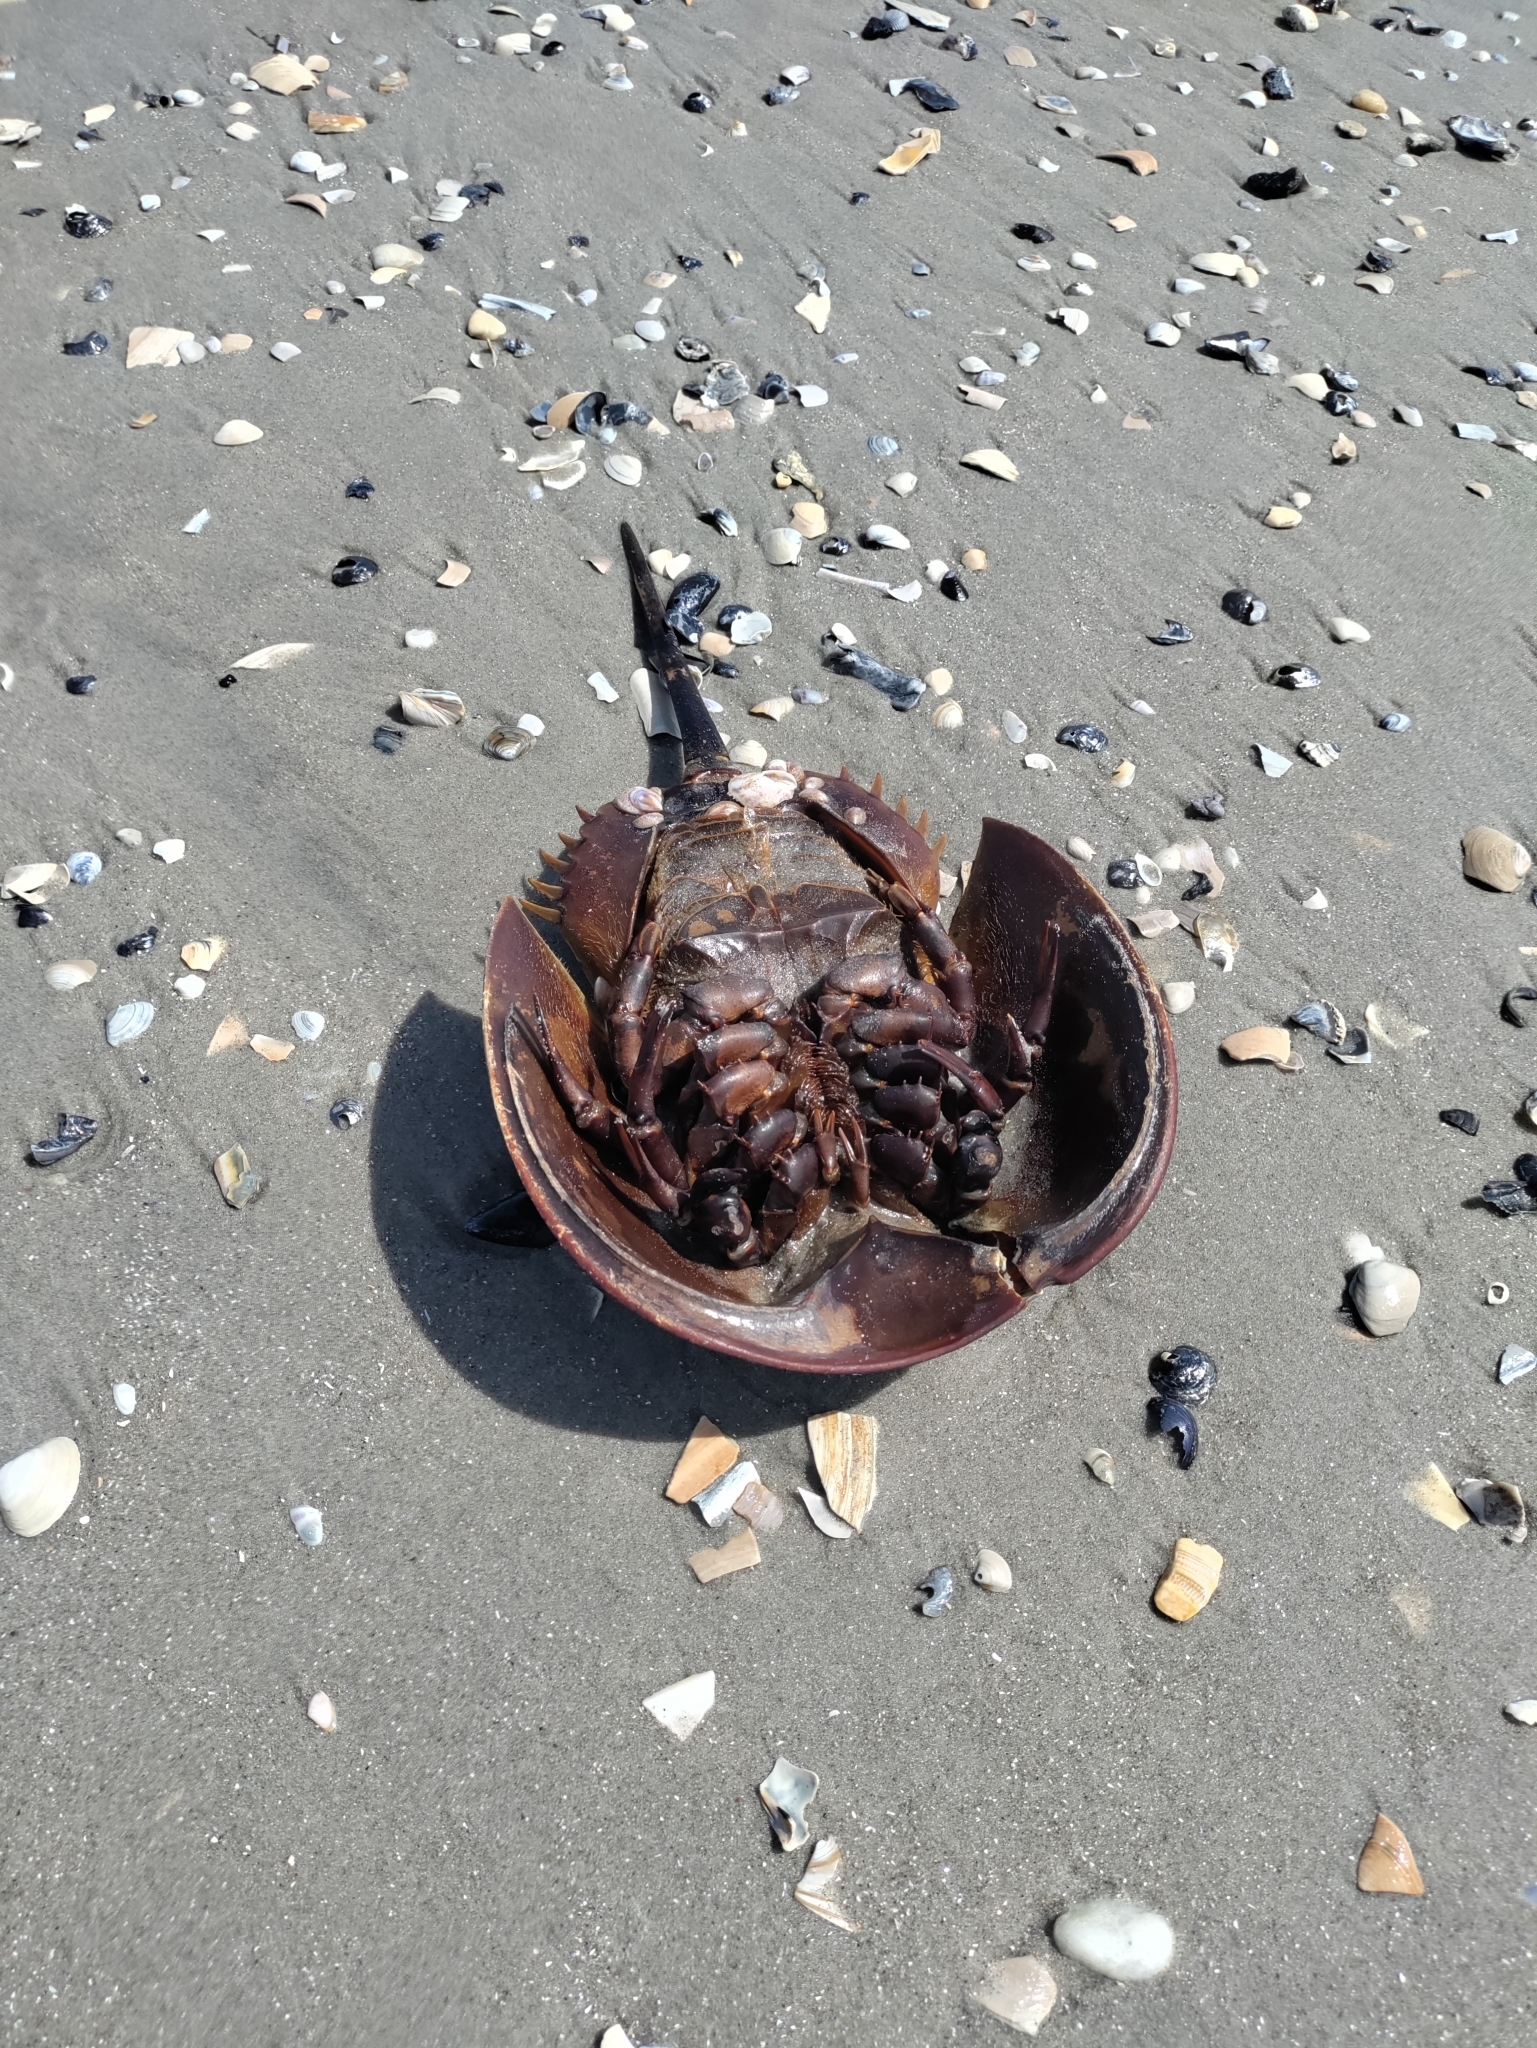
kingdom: Animalia
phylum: Arthropoda
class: Merostomata
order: Xiphosurida
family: Limulidae
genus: Limulus
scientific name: Limulus polyphemus
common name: Horseshoe crab
